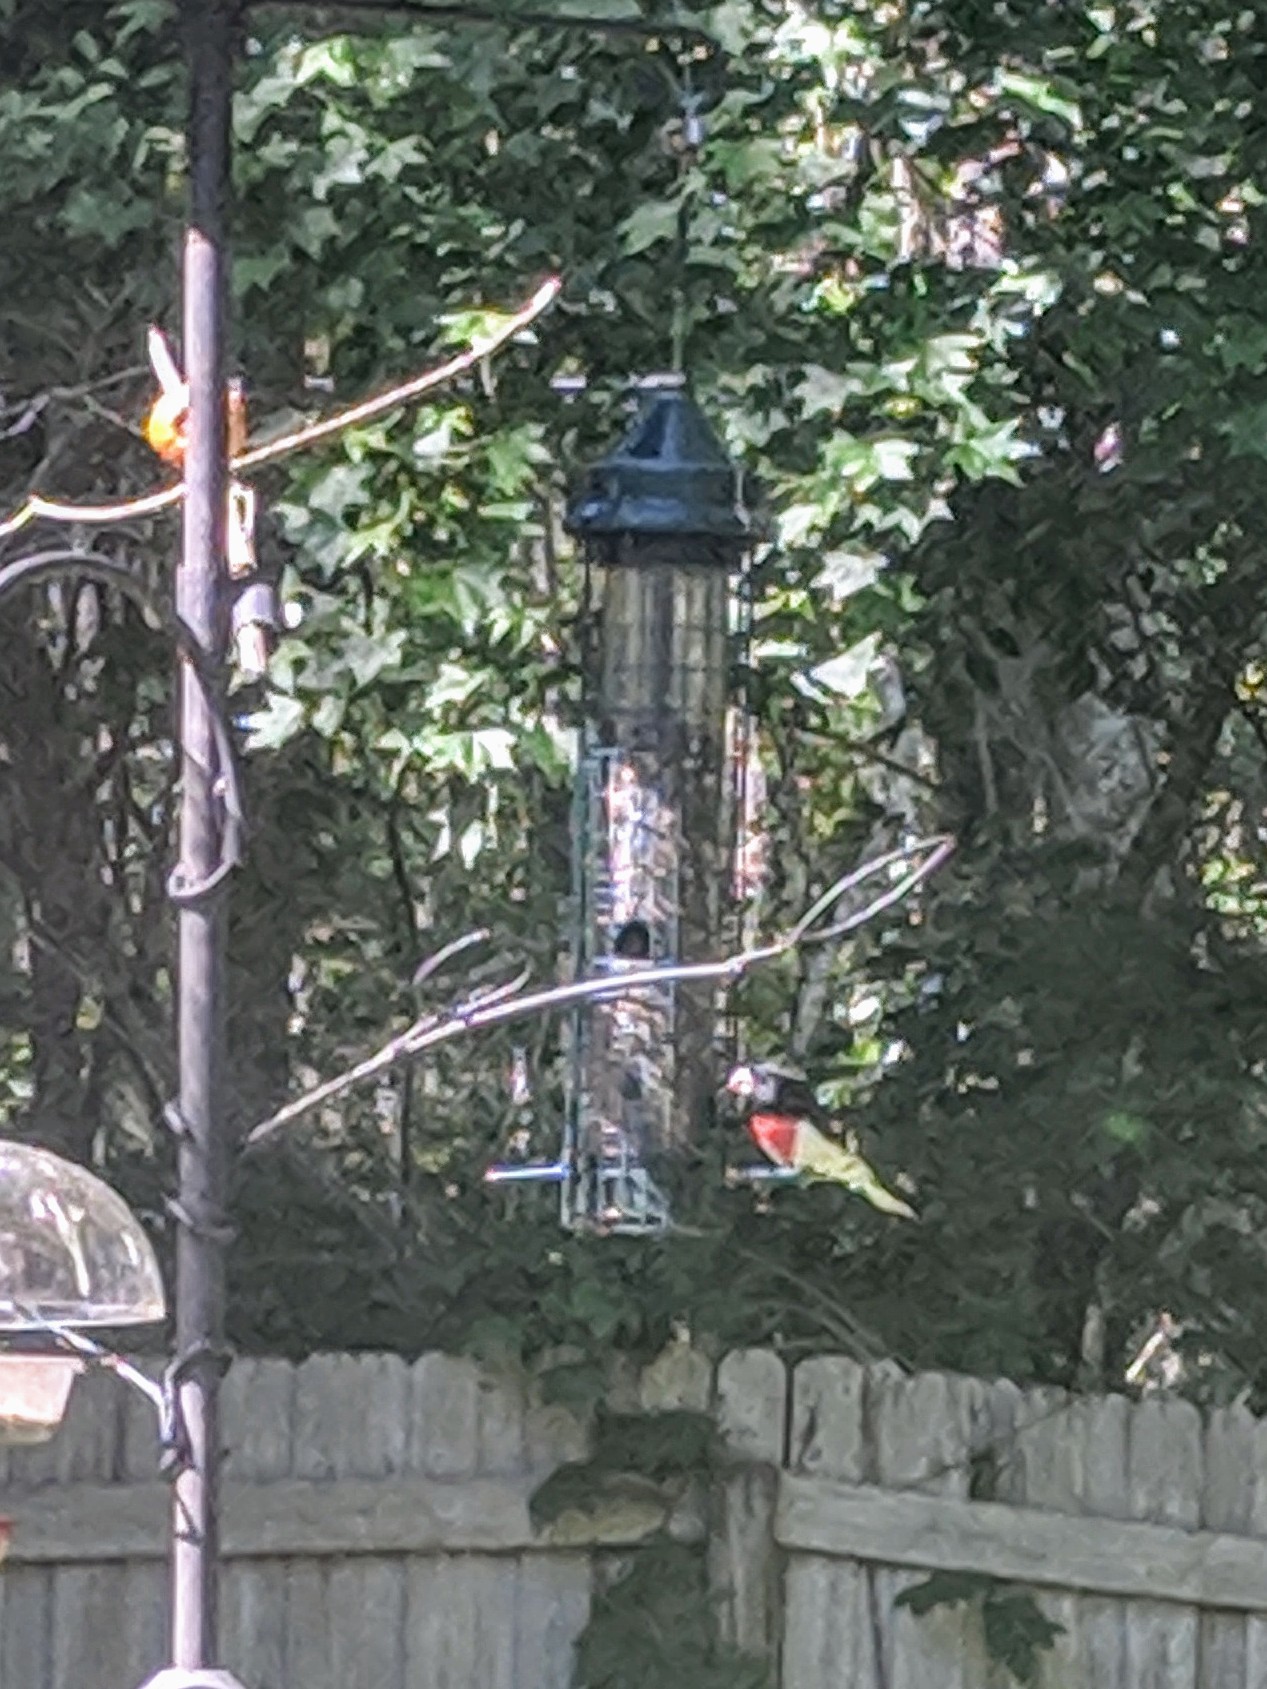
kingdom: Animalia
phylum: Chordata
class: Aves
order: Passeriformes
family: Cardinalidae
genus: Pheucticus
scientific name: Pheucticus ludovicianus
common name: Rose-breasted grosbeak
